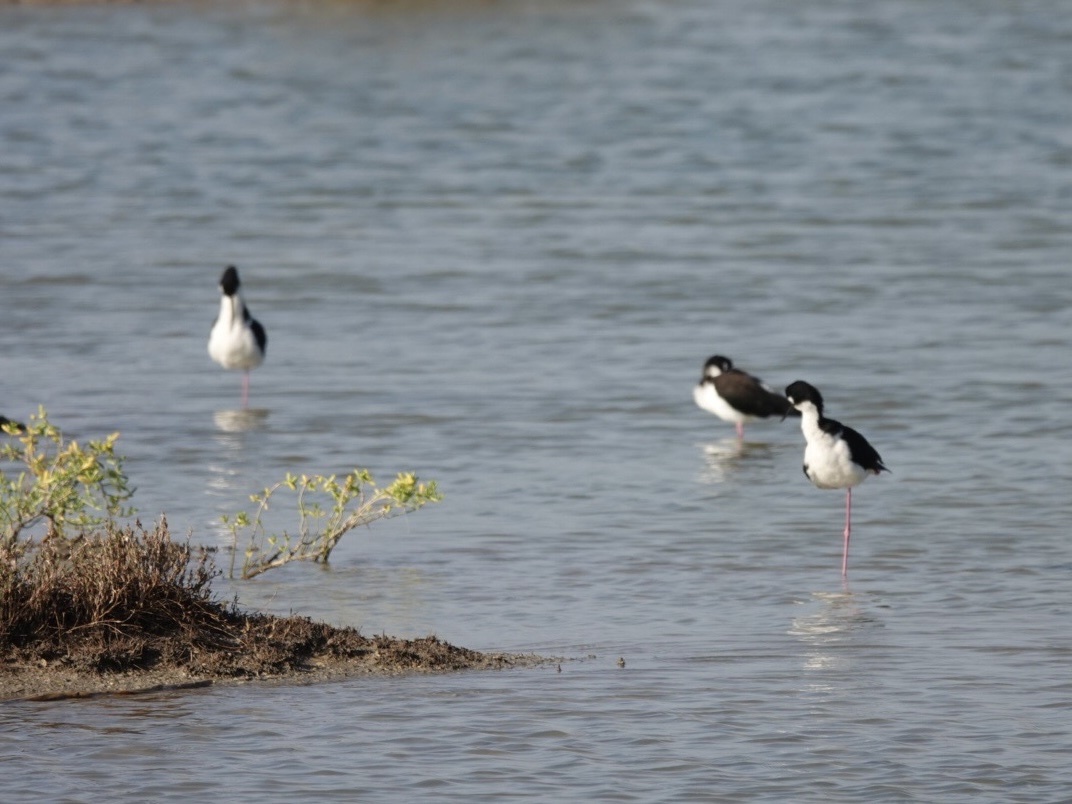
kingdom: Animalia
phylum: Chordata
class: Aves
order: Charadriiformes
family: Recurvirostridae
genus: Himantopus
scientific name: Himantopus mexicanus
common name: Black-necked stilt
